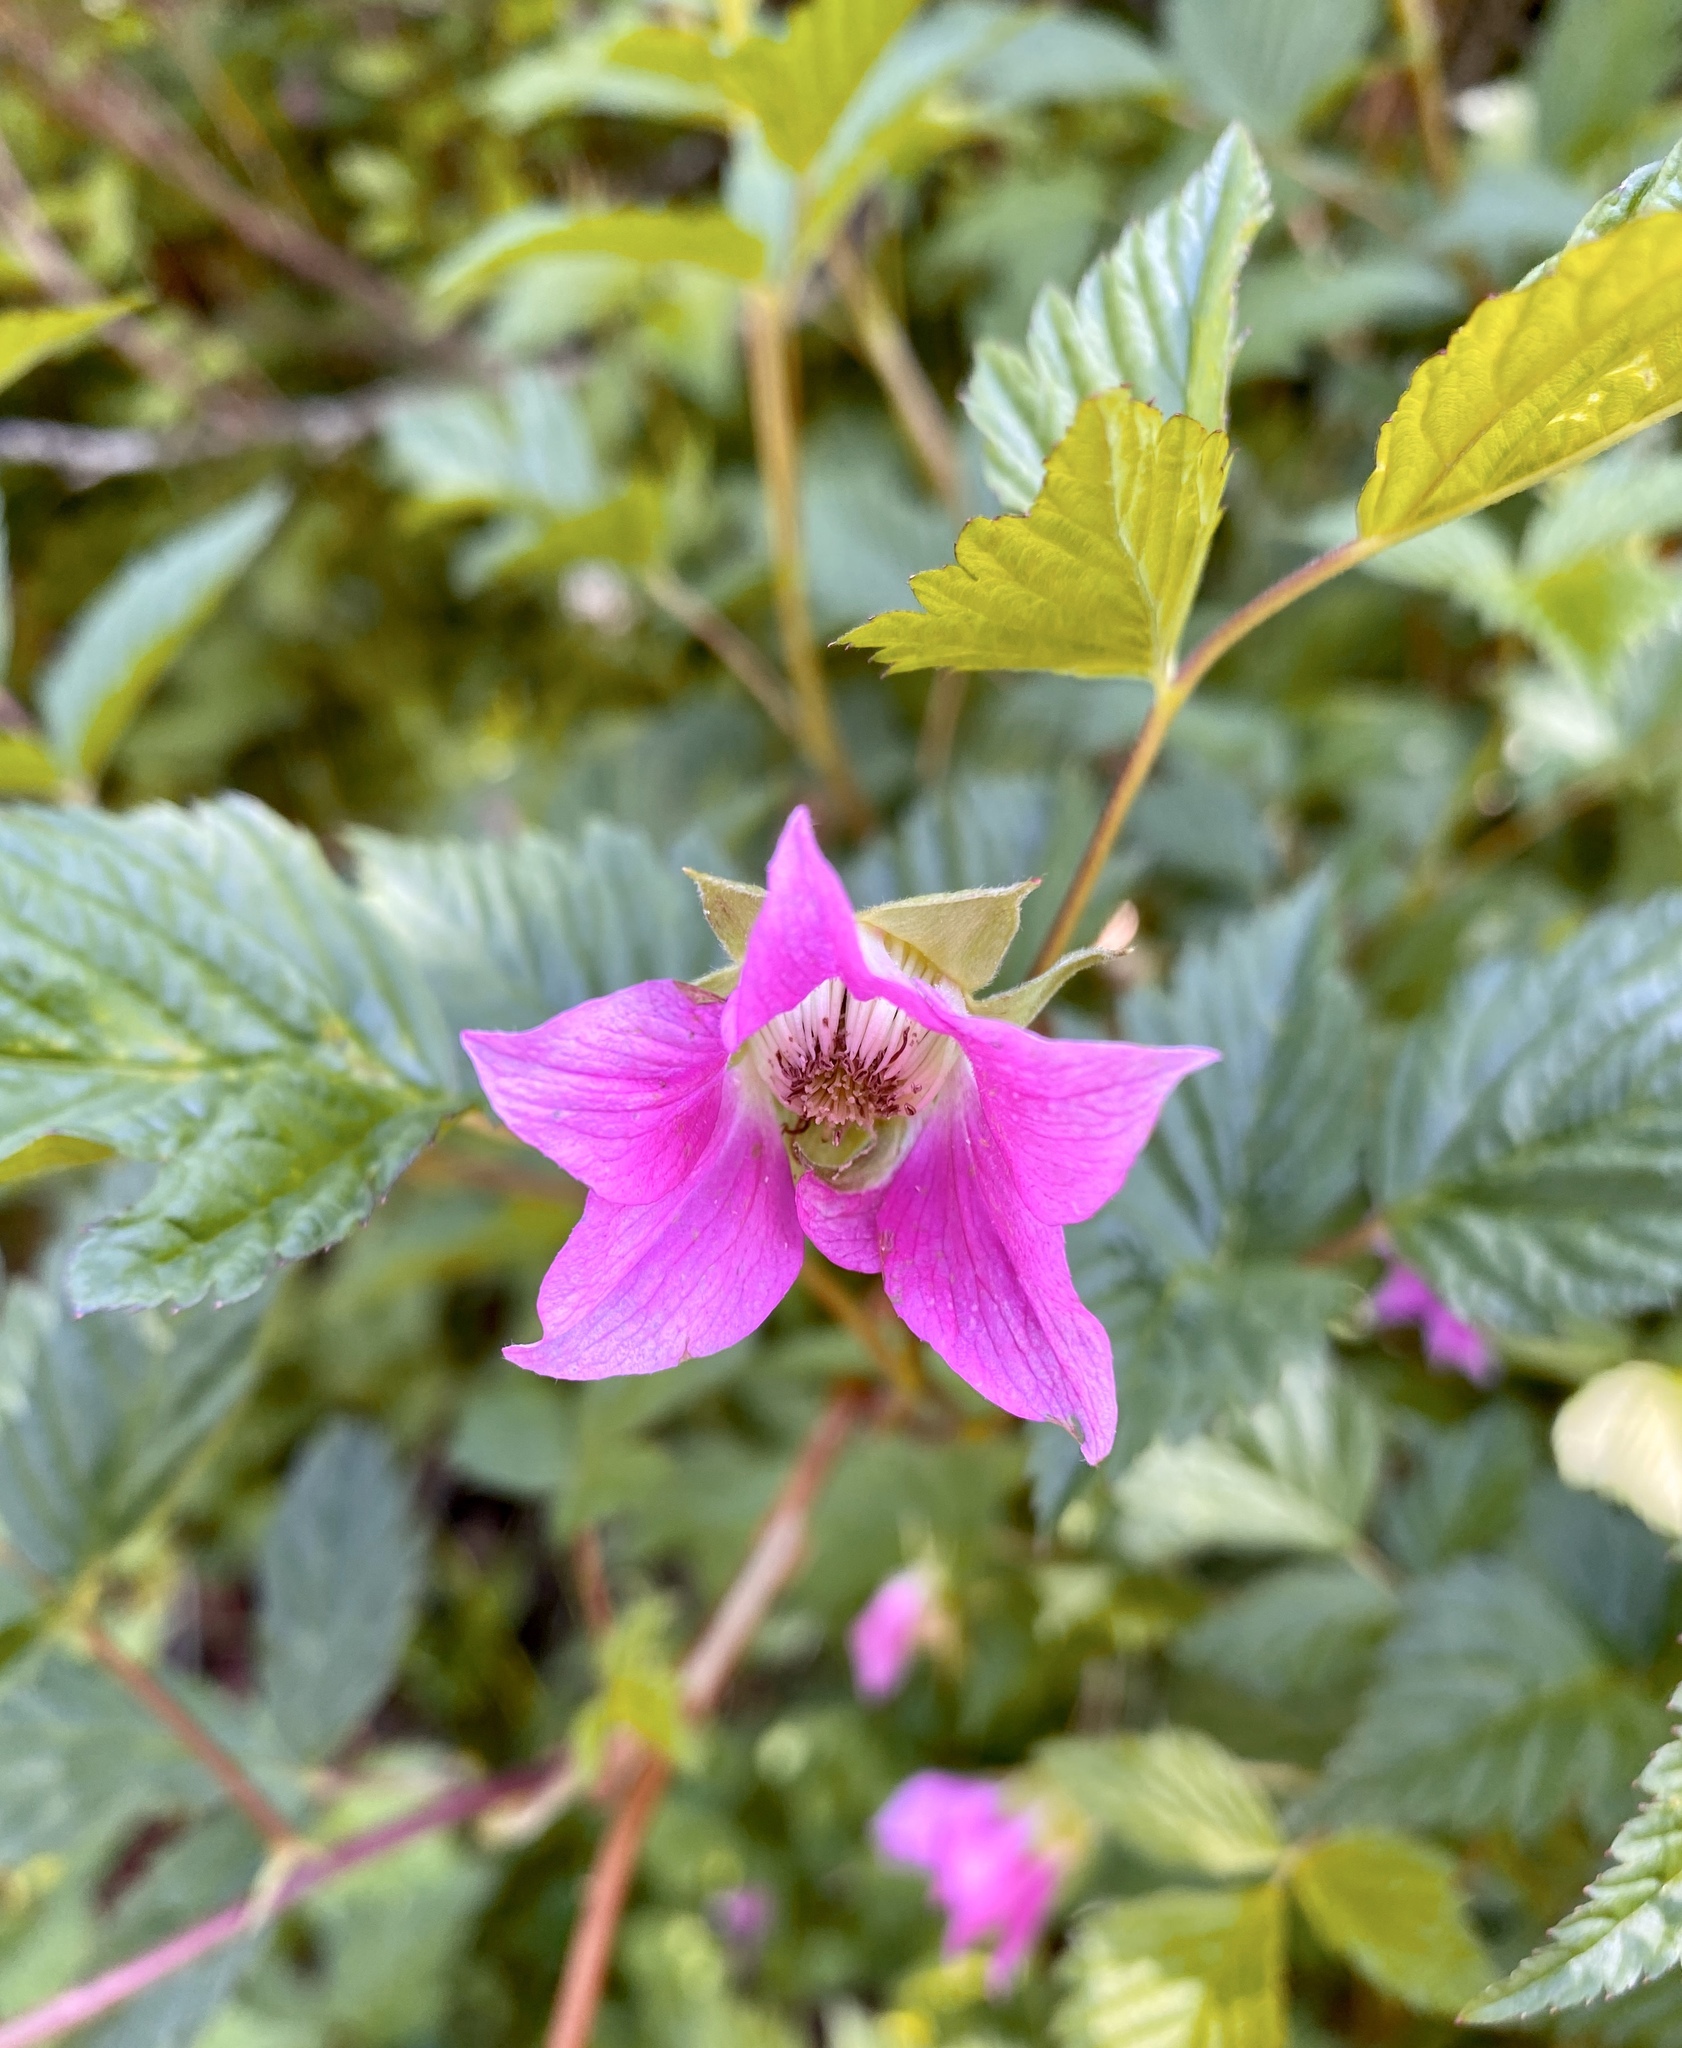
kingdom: Plantae
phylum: Tracheophyta
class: Magnoliopsida
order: Rosales
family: Rosaceae
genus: Rubus
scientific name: Rubus spectabilis
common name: Salmonberry
